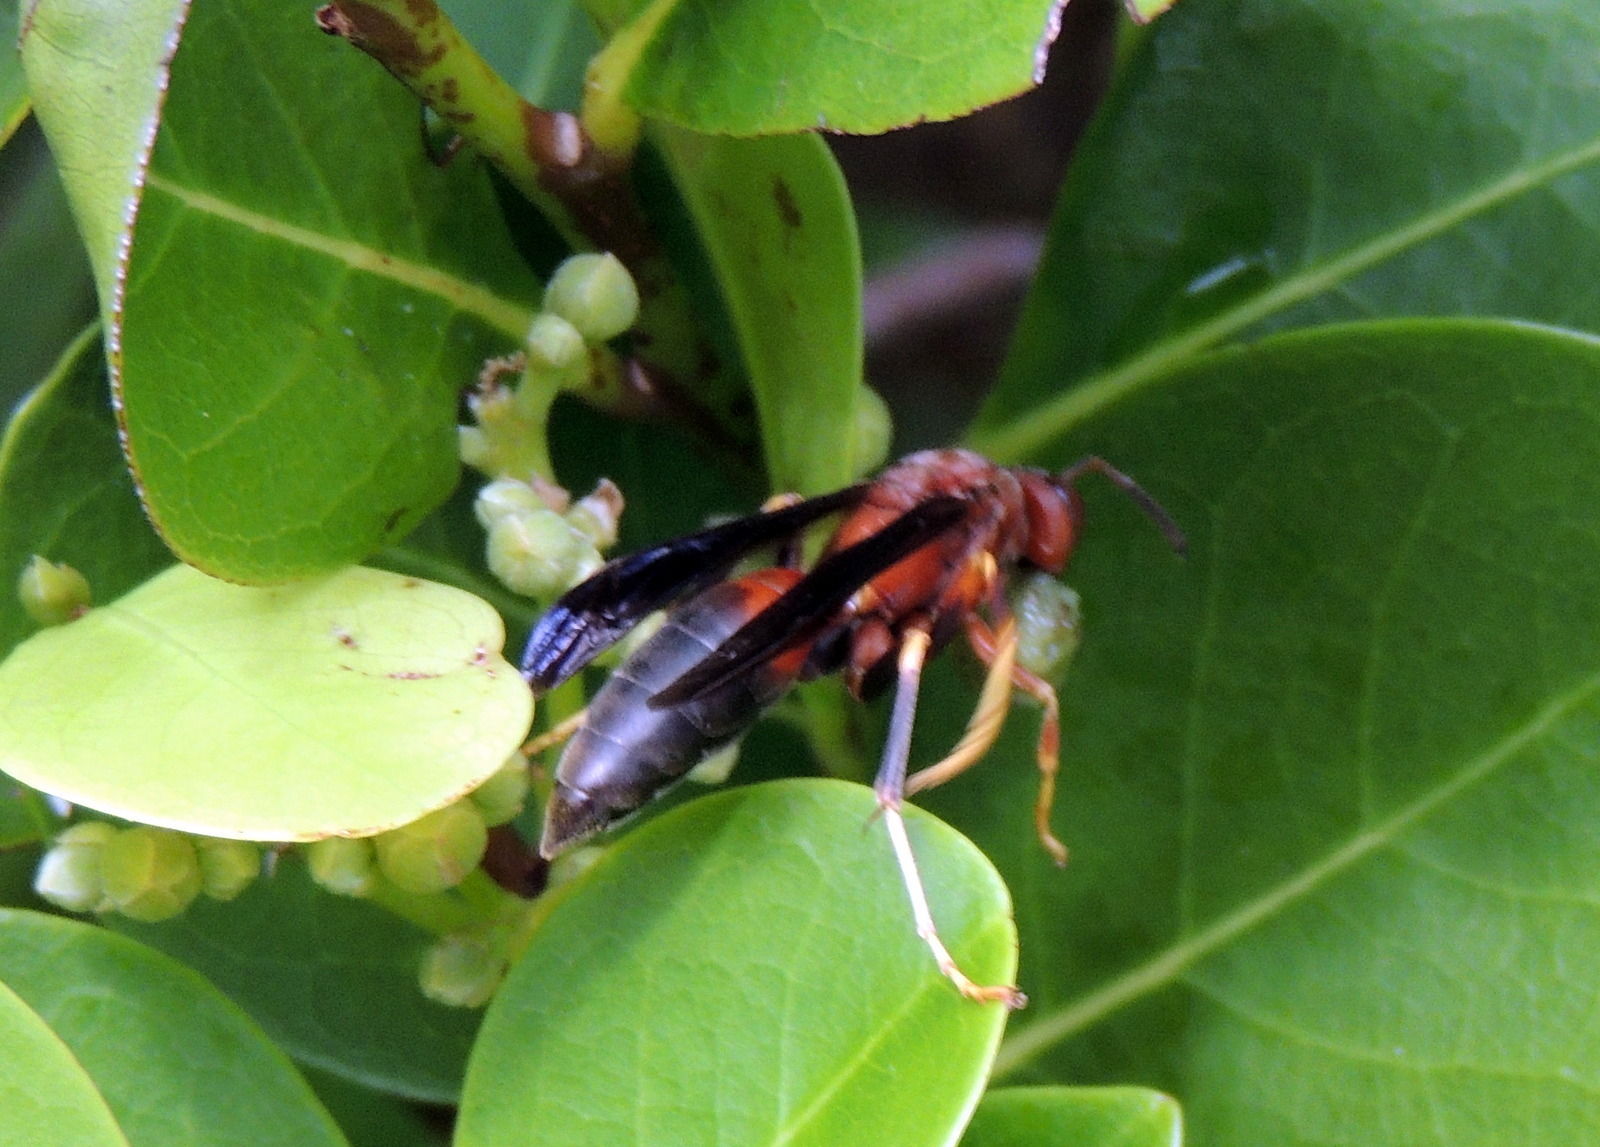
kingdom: Animalia
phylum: Arthropoda
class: Insecta
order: Hymenoptera
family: Eumenidae
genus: Polistes
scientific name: Polistes metricus
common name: Metric paper wasp
